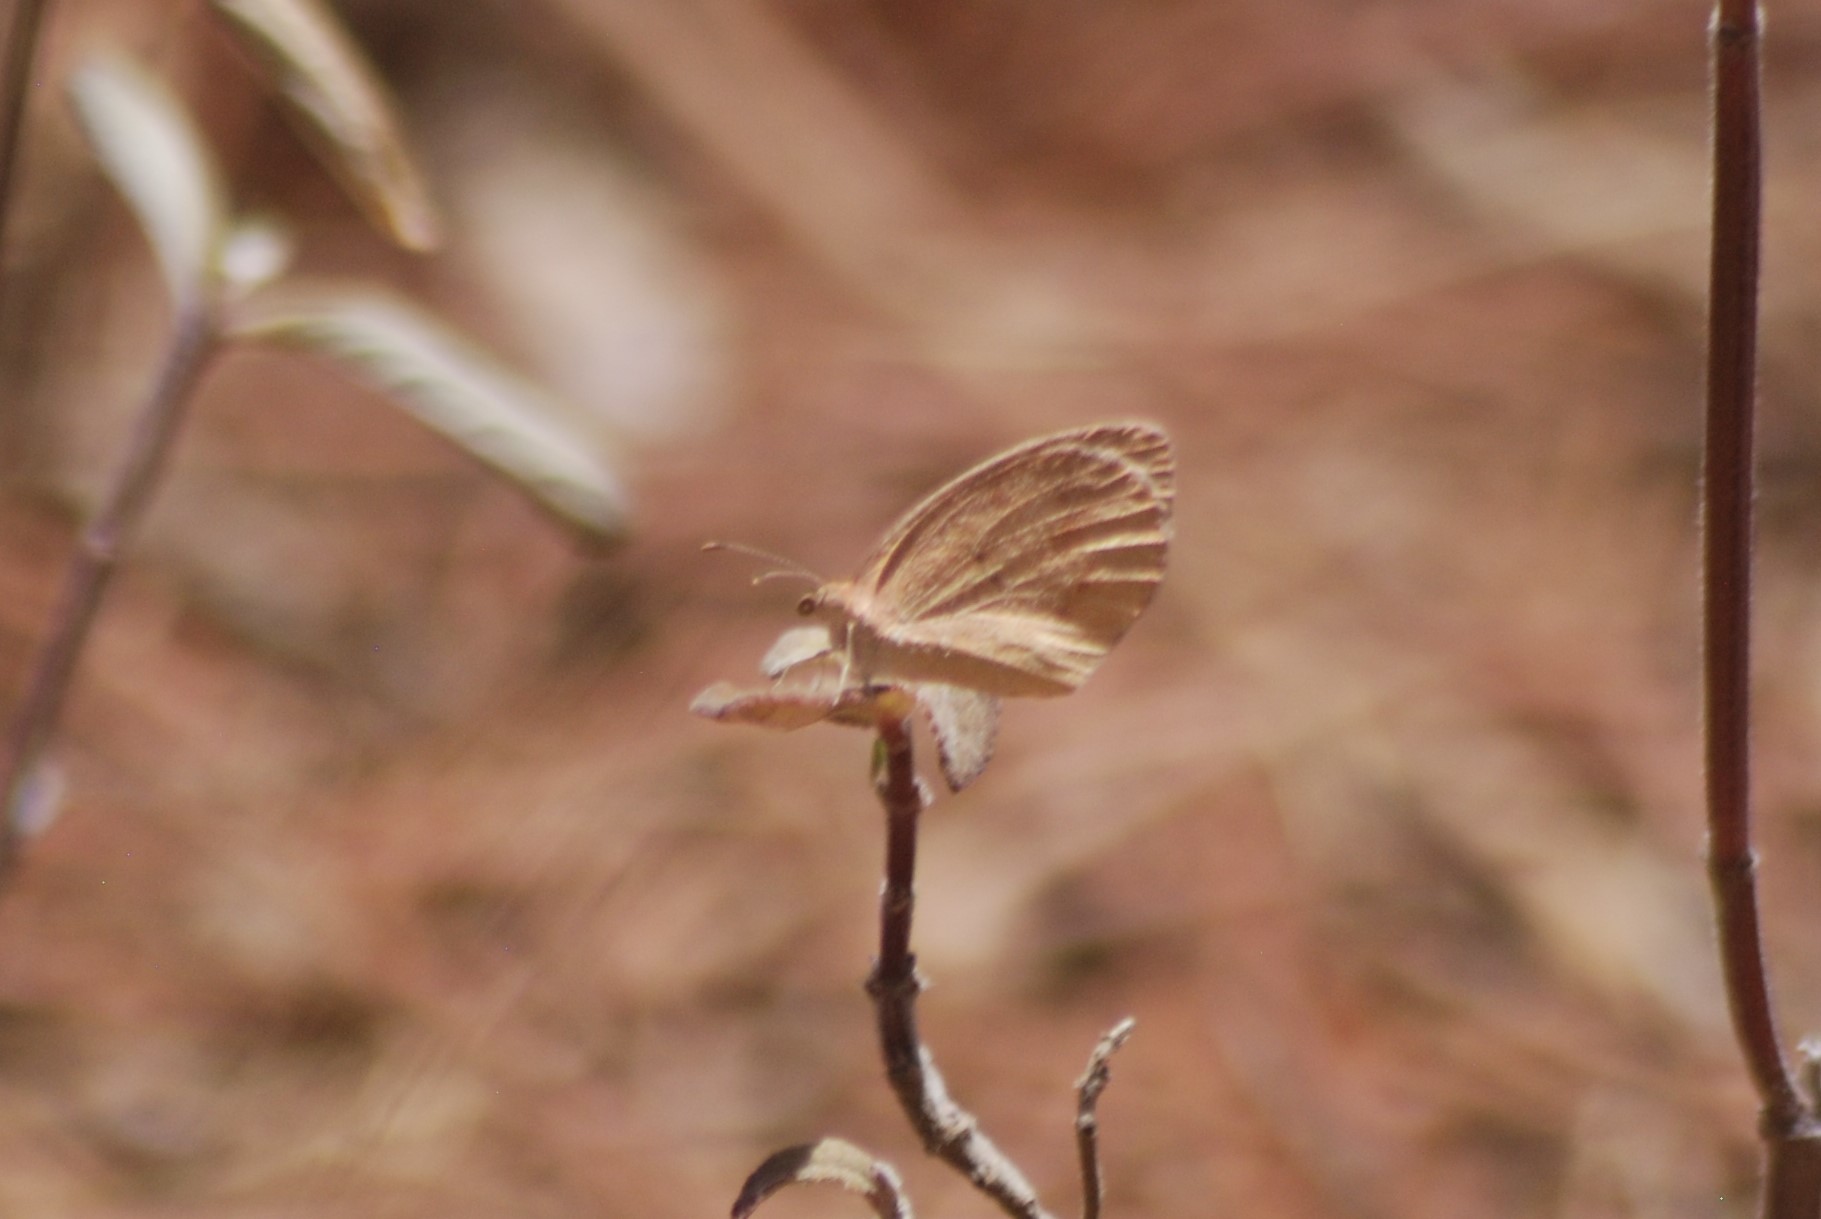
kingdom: Animalia
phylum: Arthropoda
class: Insecta
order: Lepidoptera
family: Pieridae
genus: Eurema
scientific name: Eurema daira
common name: Barred sulphur
